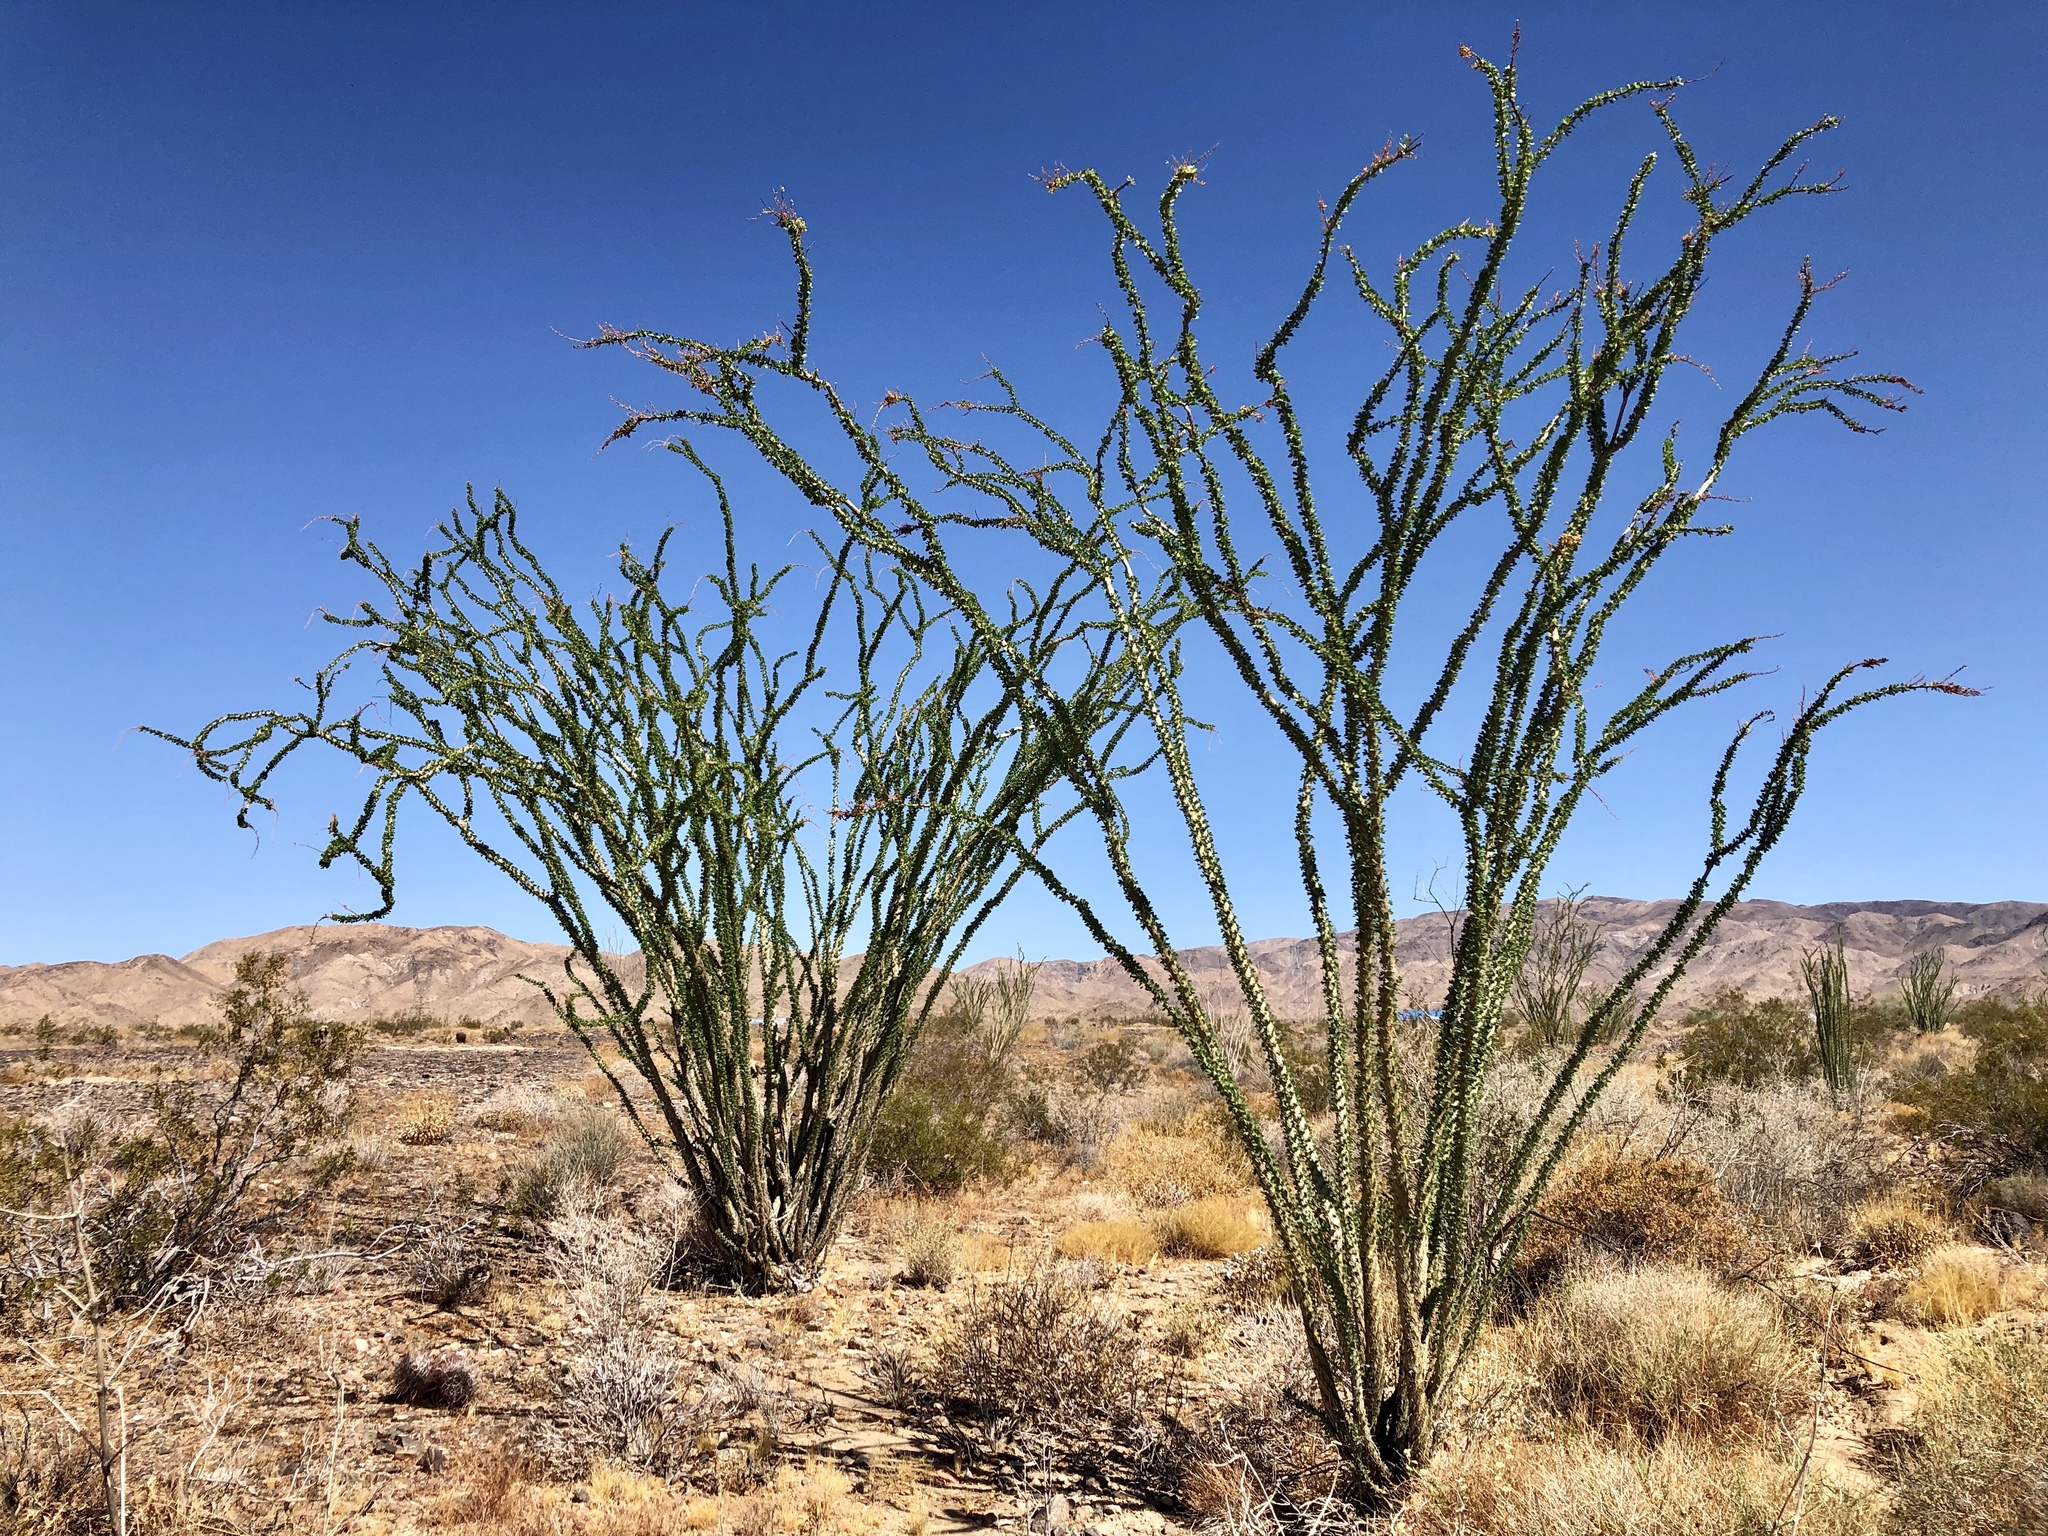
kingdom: Plantae
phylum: Tracheophyta
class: Magnoliopsida
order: Ericales
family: Fouquieriaceae
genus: Fouquieria
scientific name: Fouquieria splendens
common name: Vine-cactus
